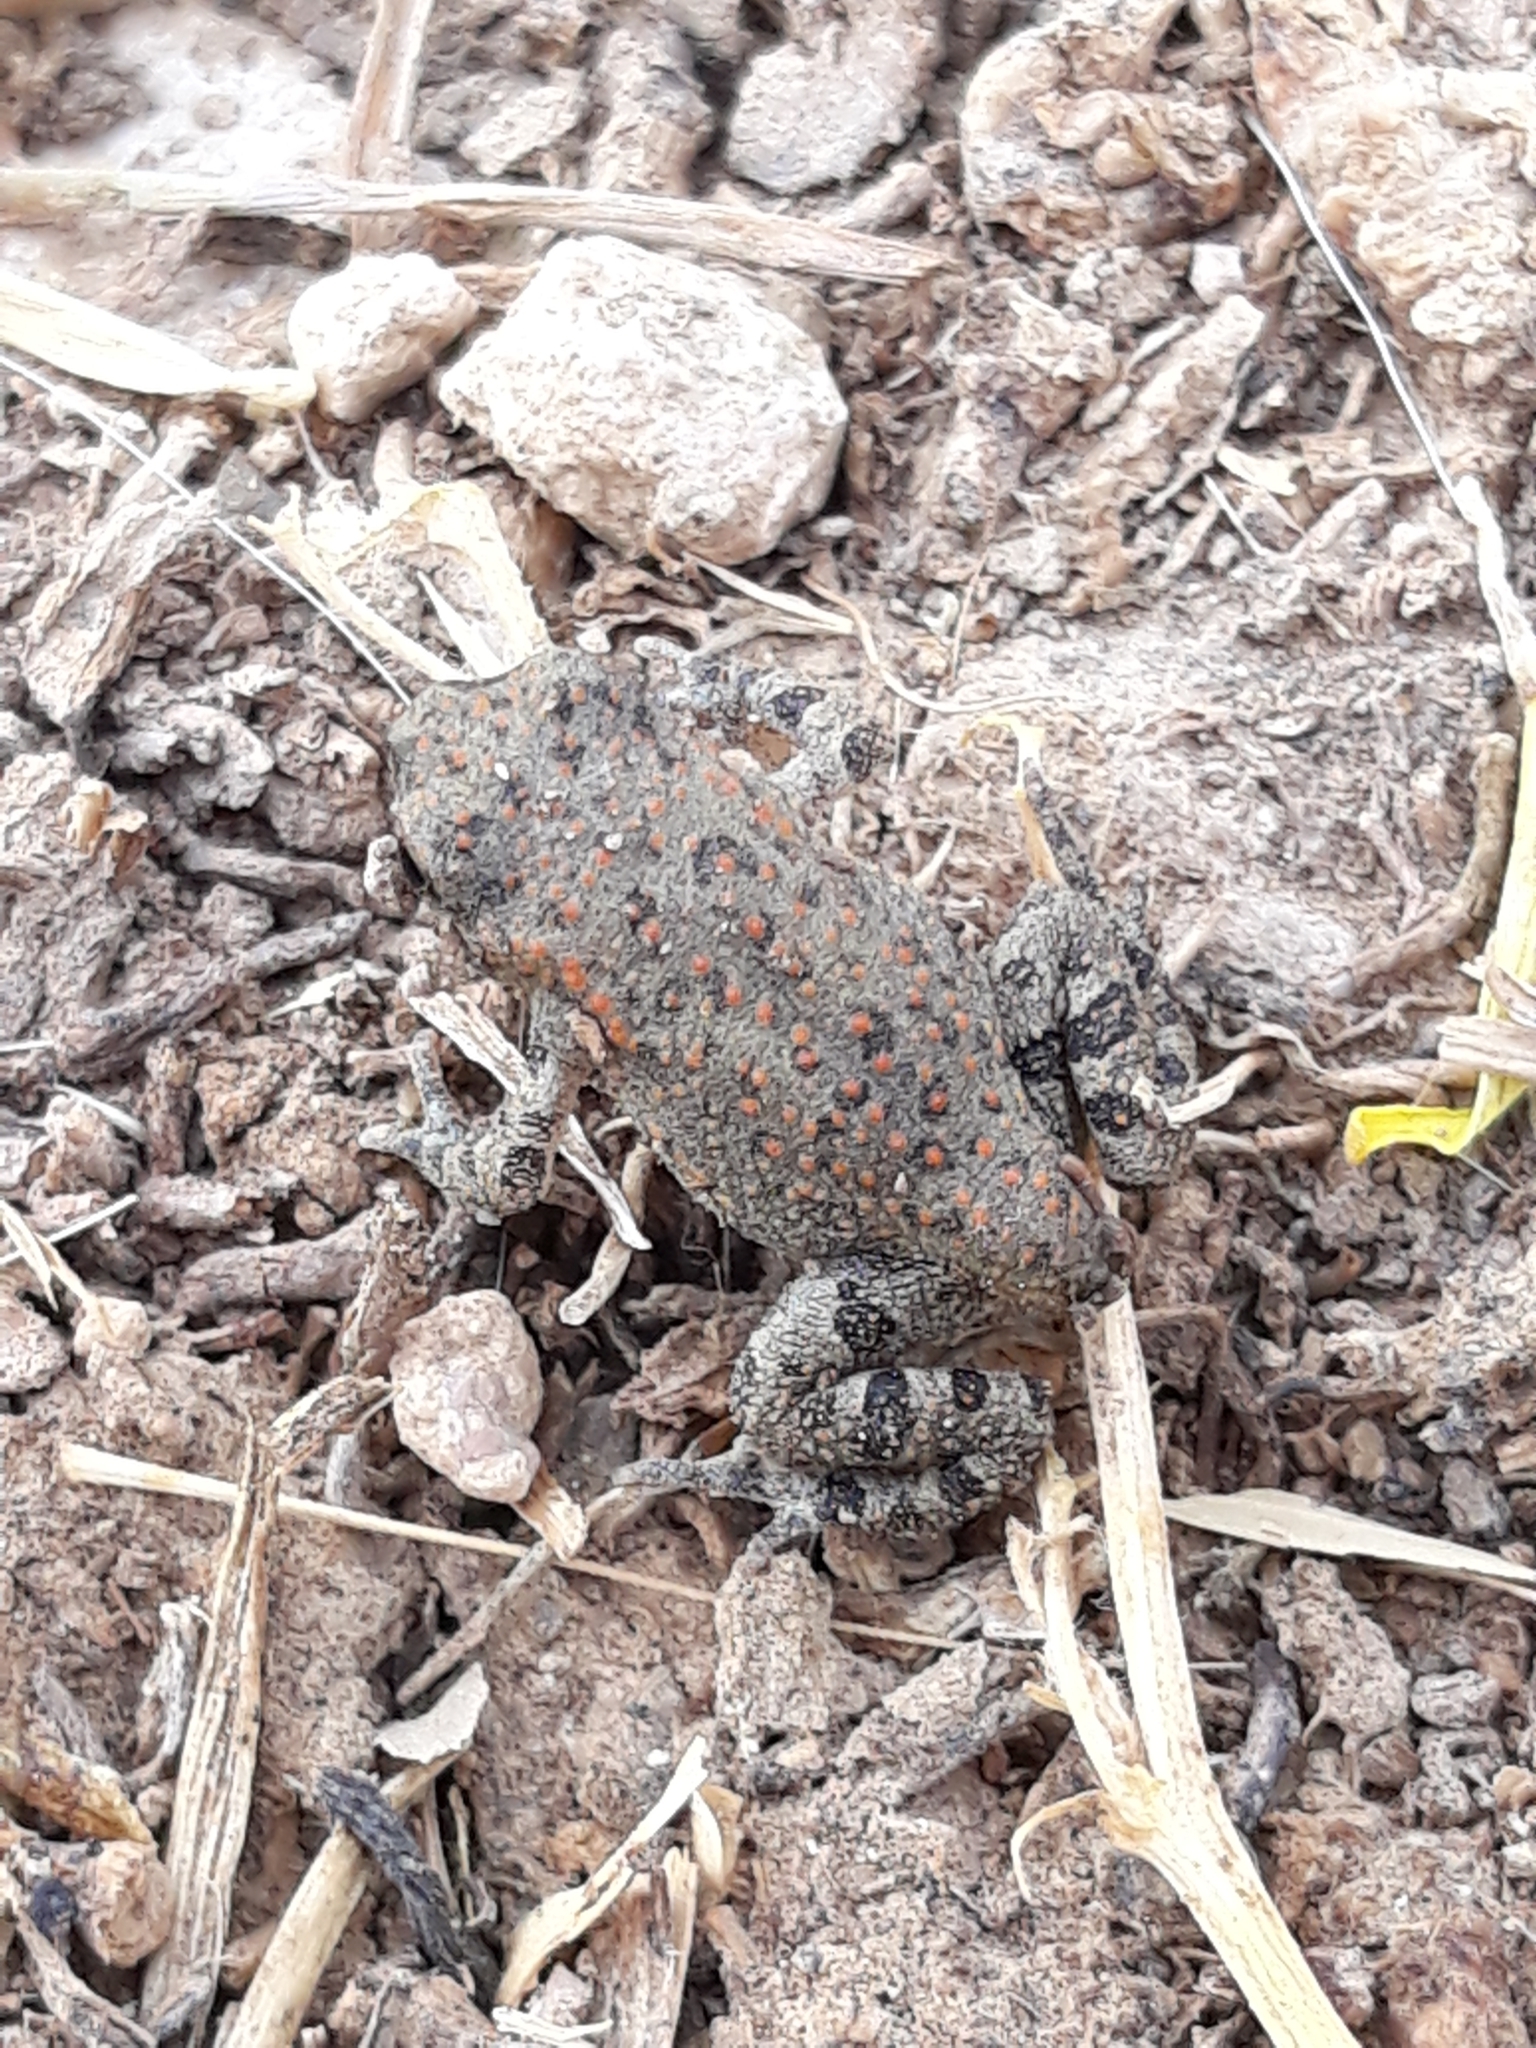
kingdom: Animalia
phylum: Chordata
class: Amphibia
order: Anura
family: Bufonidae
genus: Sclerophrys
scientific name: Sclerophrys mauritanica
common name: Berber toad
